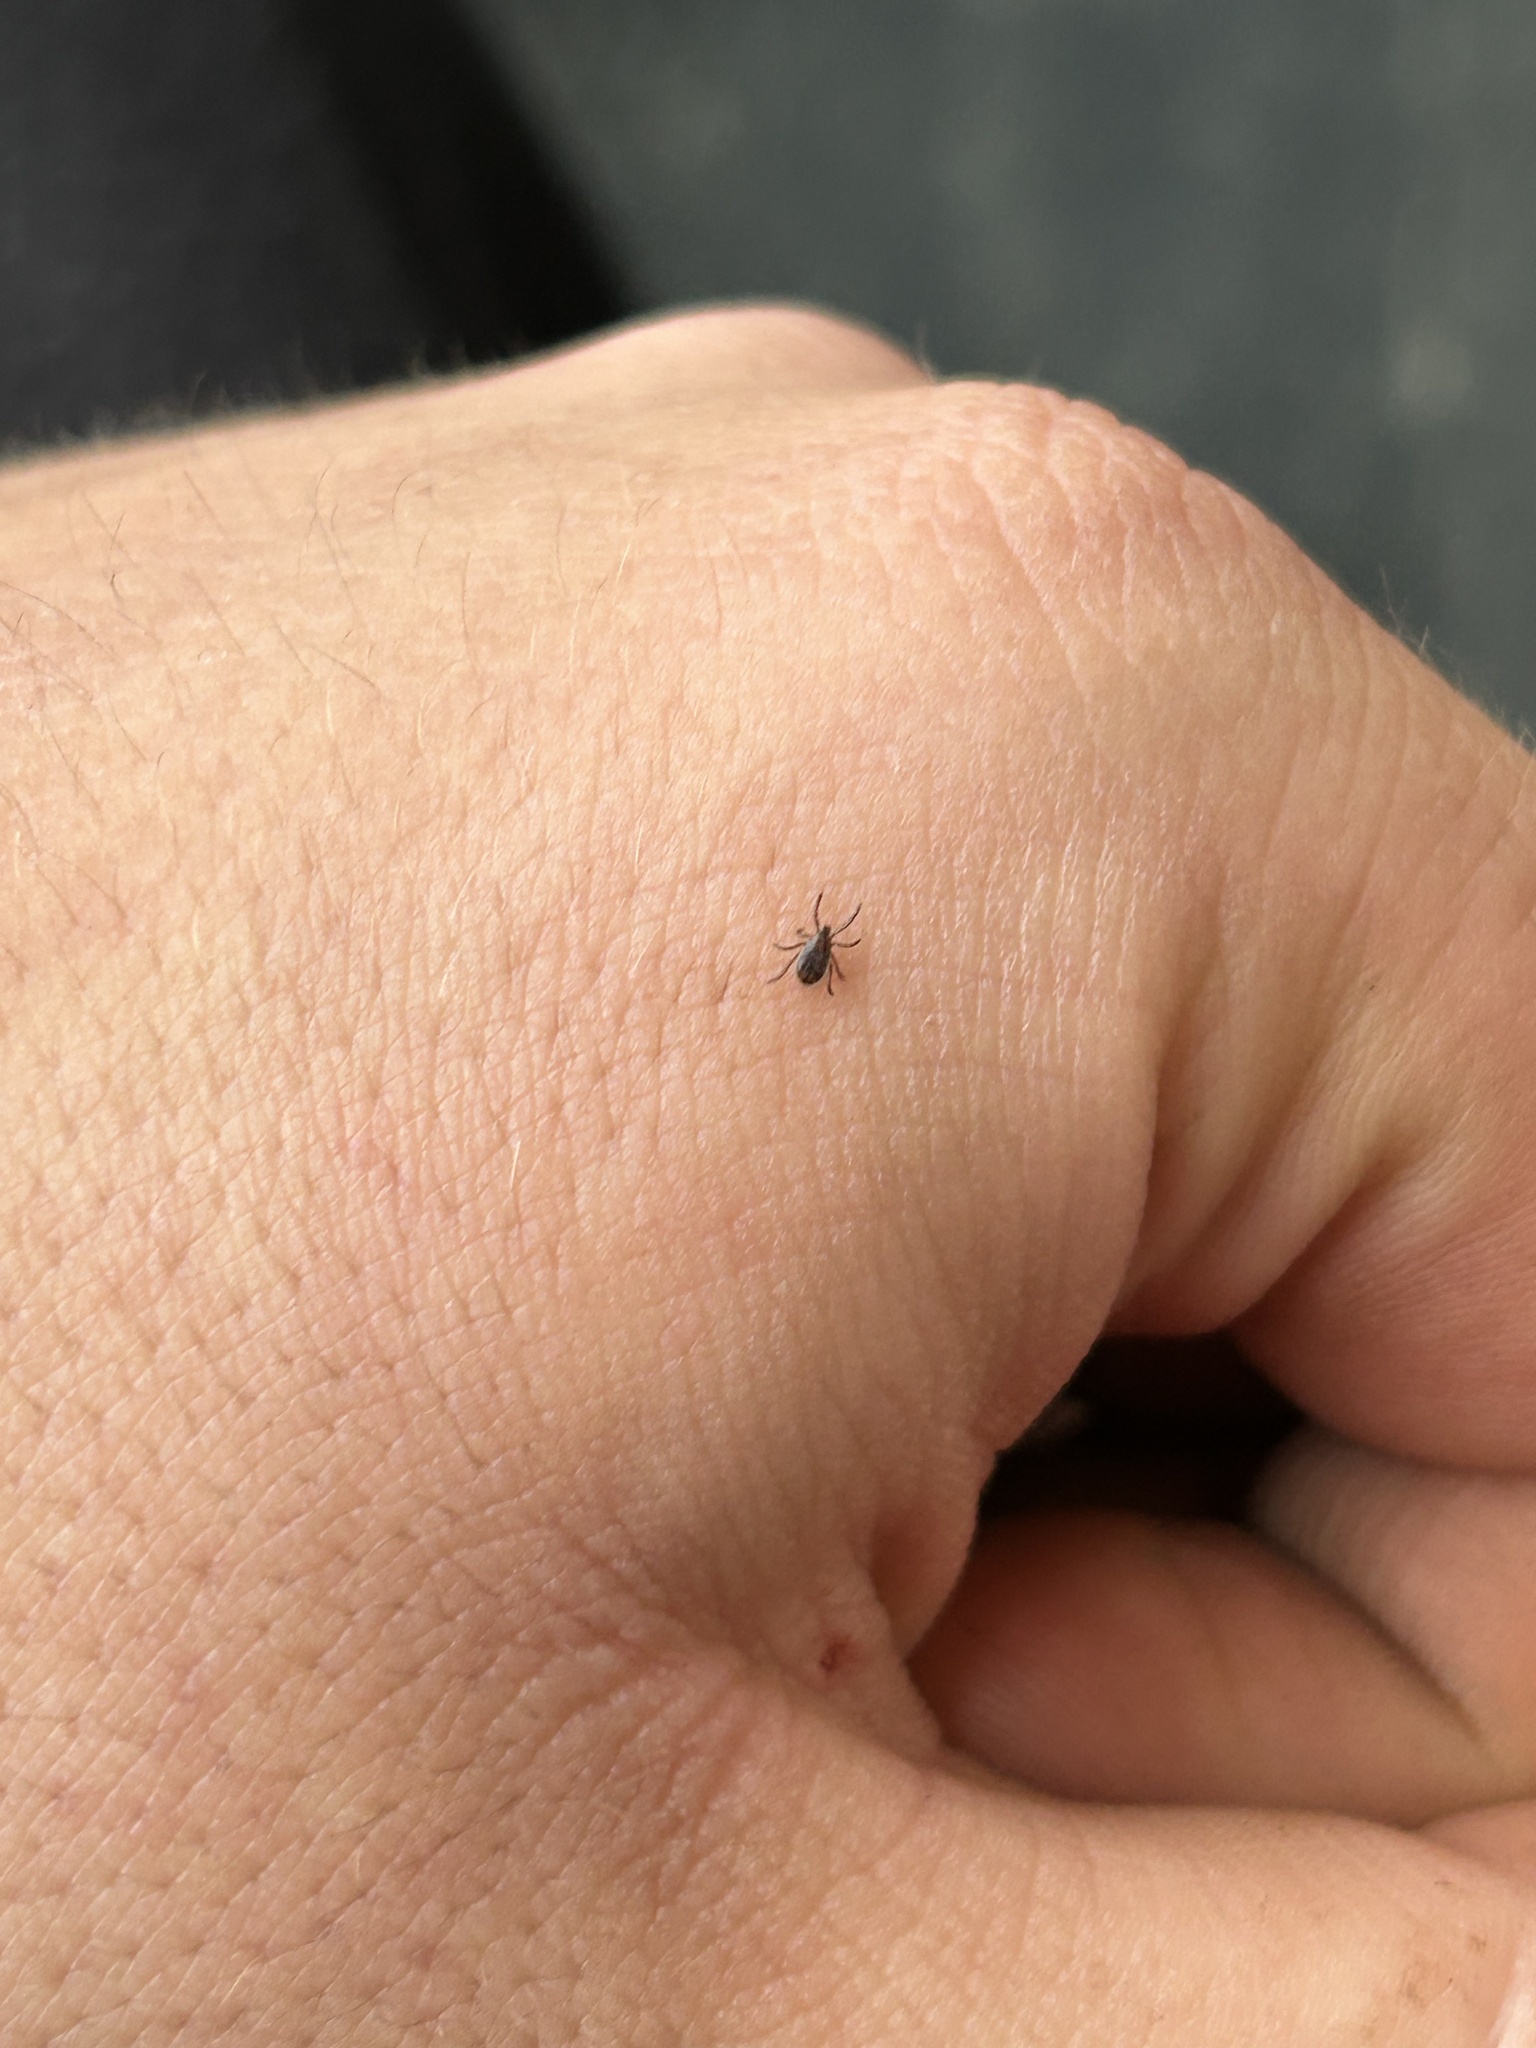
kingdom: Animalia
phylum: Arthropoda
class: Arachnida
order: Ixodida
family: Ixodidae
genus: Ixodes
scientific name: Ixodes scapularis
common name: Black legged tick
